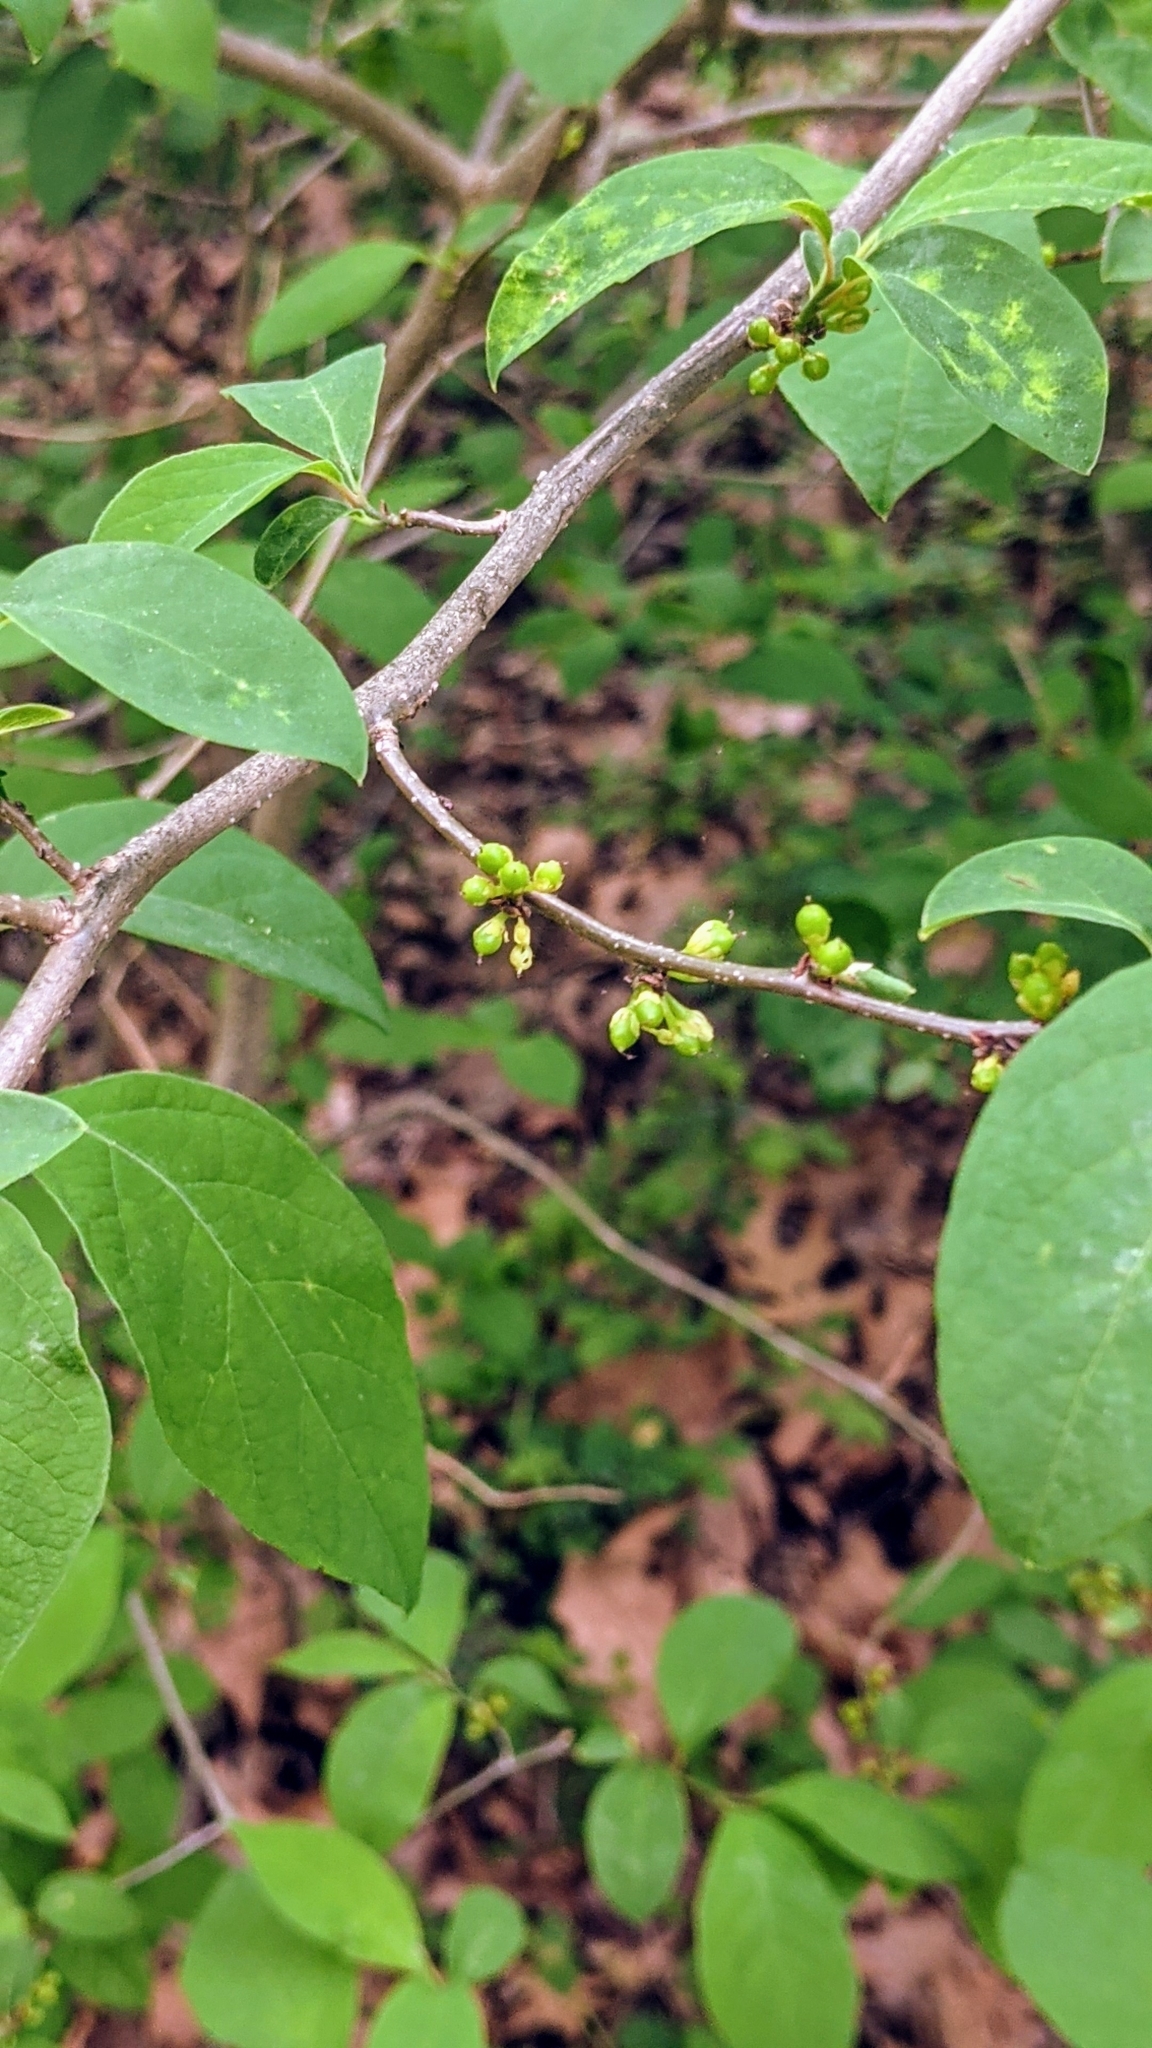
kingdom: Plantae
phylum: Tracheophyta
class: Magnoliopsida
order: Laurales
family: Lauraceae
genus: Lindera
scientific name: Lindera benzoin
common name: Spicebush
